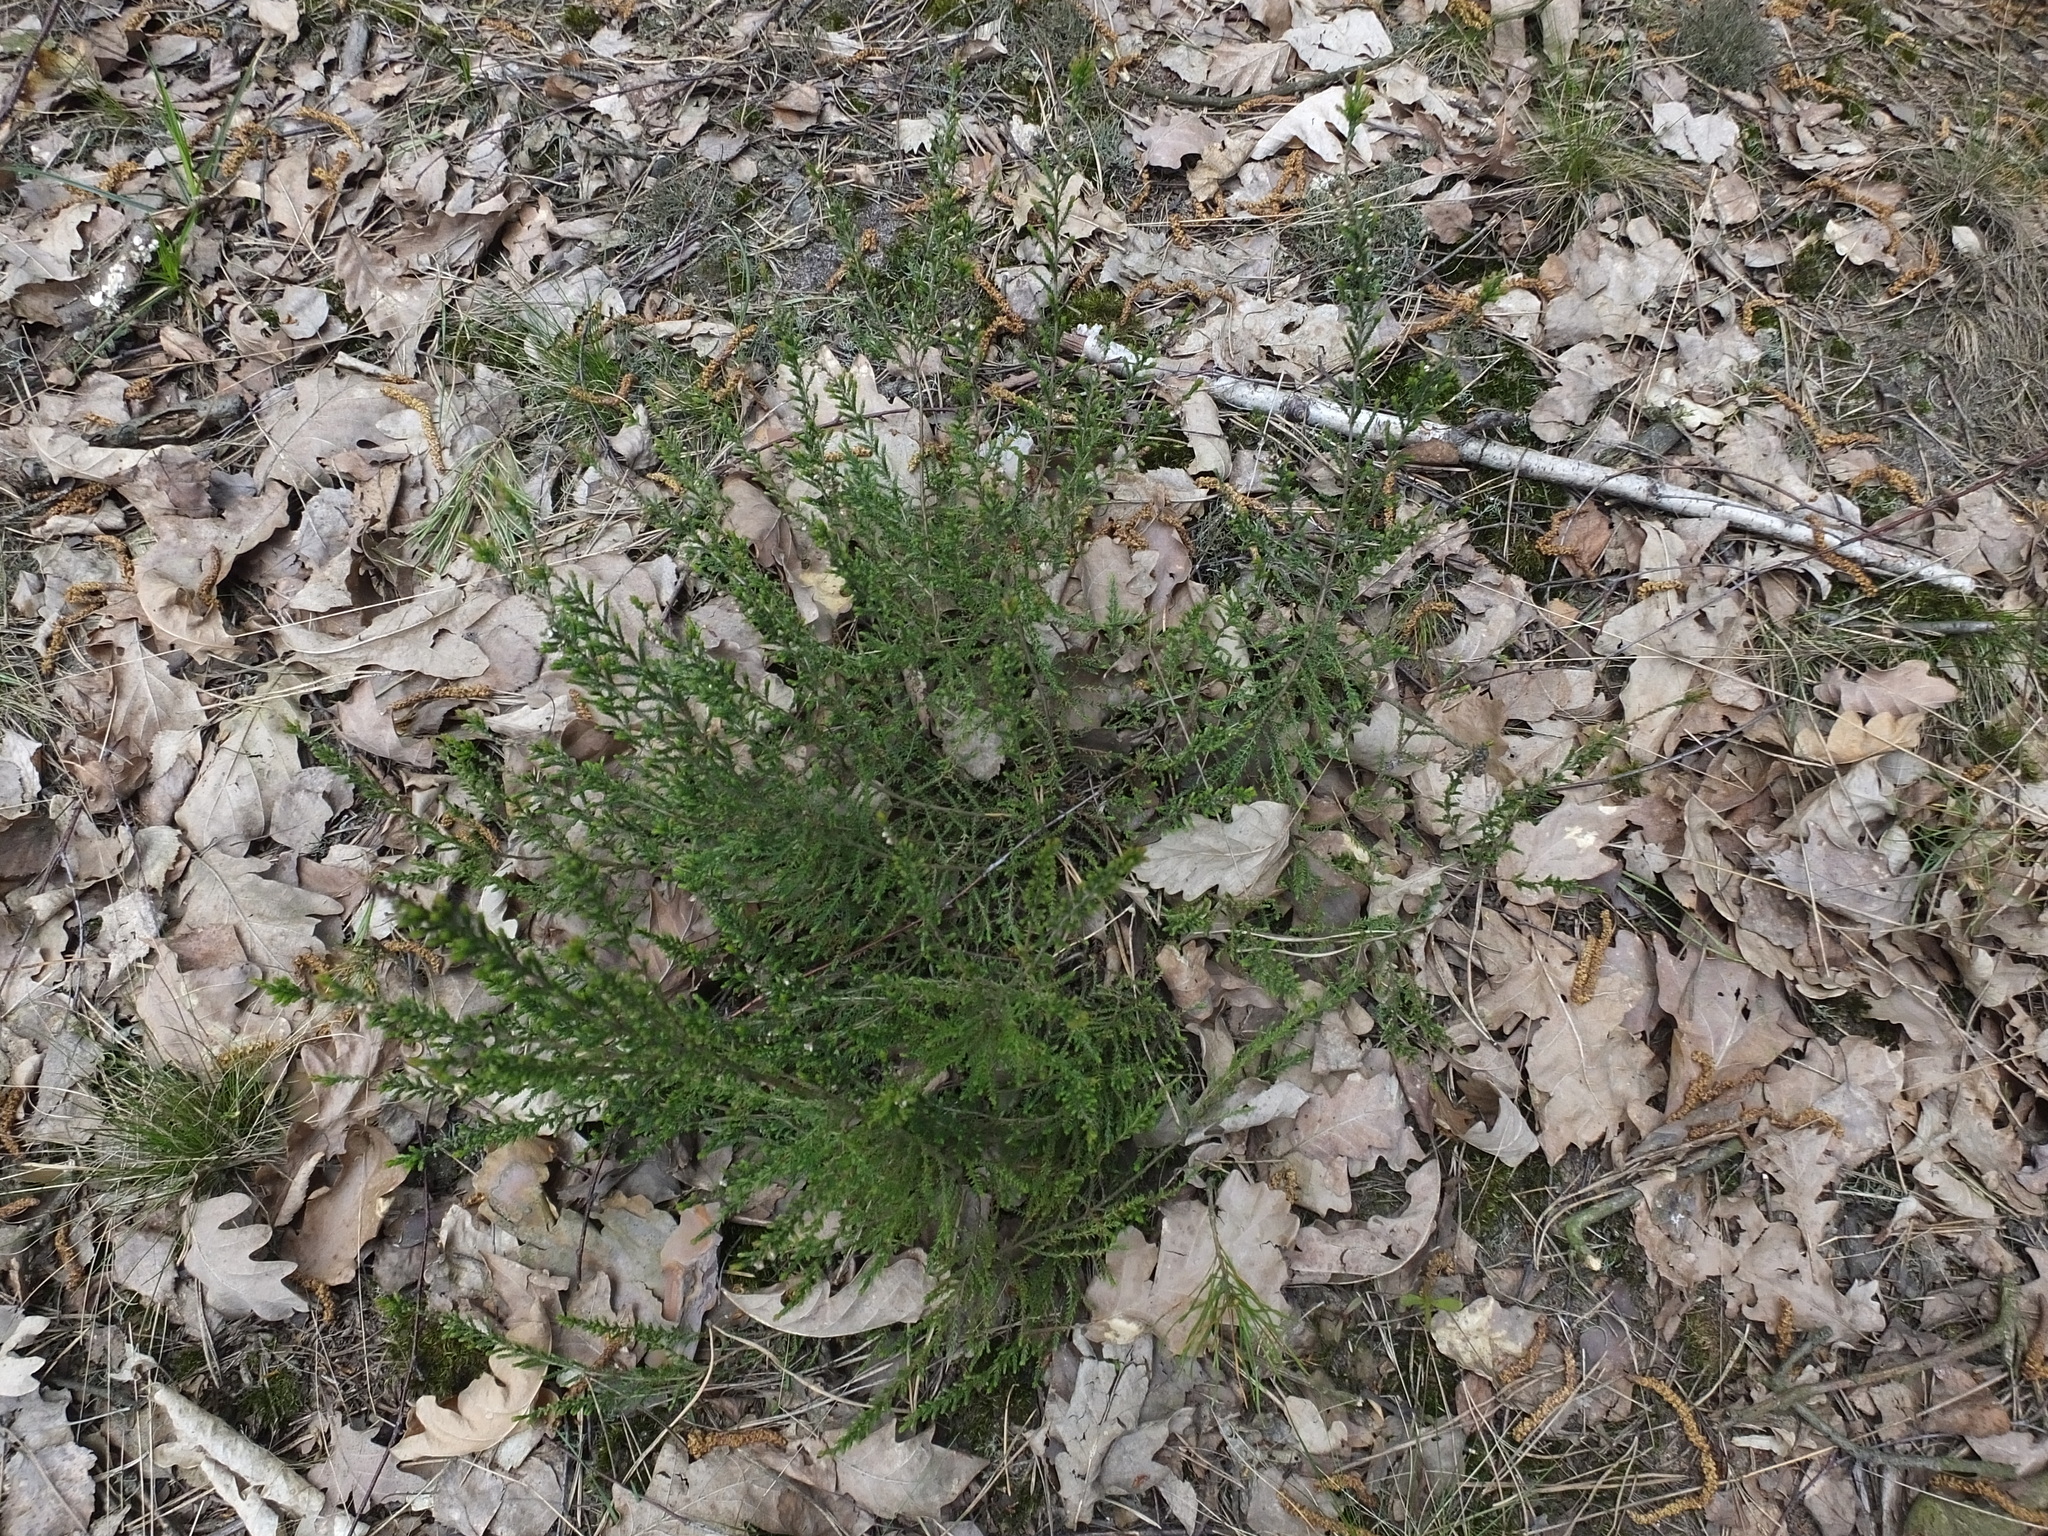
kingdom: Plantae
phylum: Tracheophyta
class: Magnoliopsida
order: Ericales
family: Ericaceae
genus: Calluna
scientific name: Calluna vulgaris
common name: Heather
